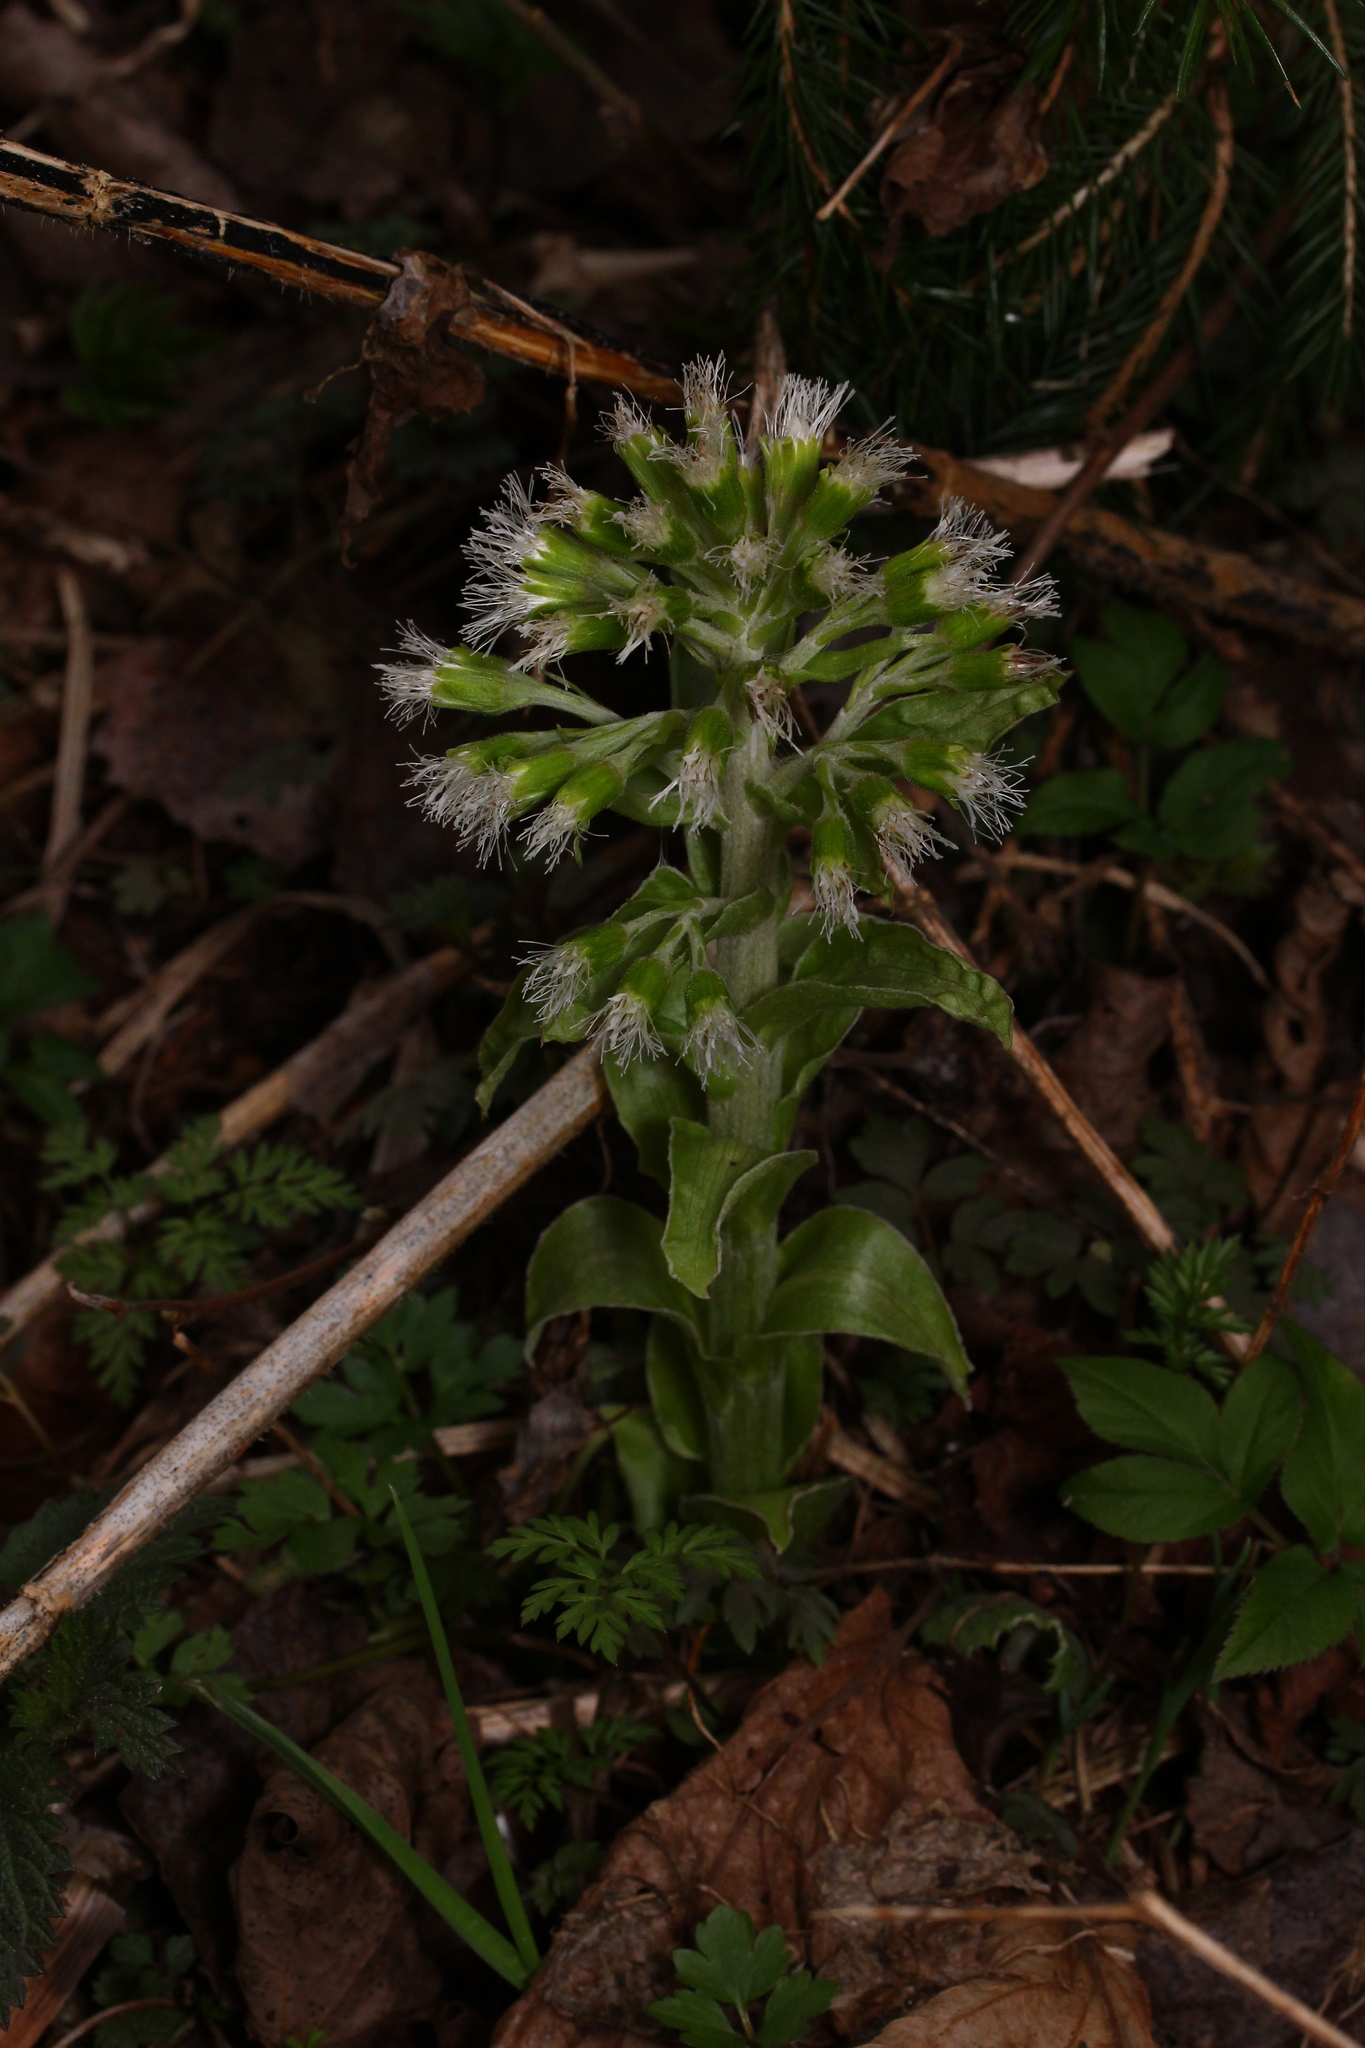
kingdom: Plantae
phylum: Tracheophyta
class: Magnoliopsida
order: Asterales
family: Asteraceae
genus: Petasites
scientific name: Petasites albus
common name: White butterbur
